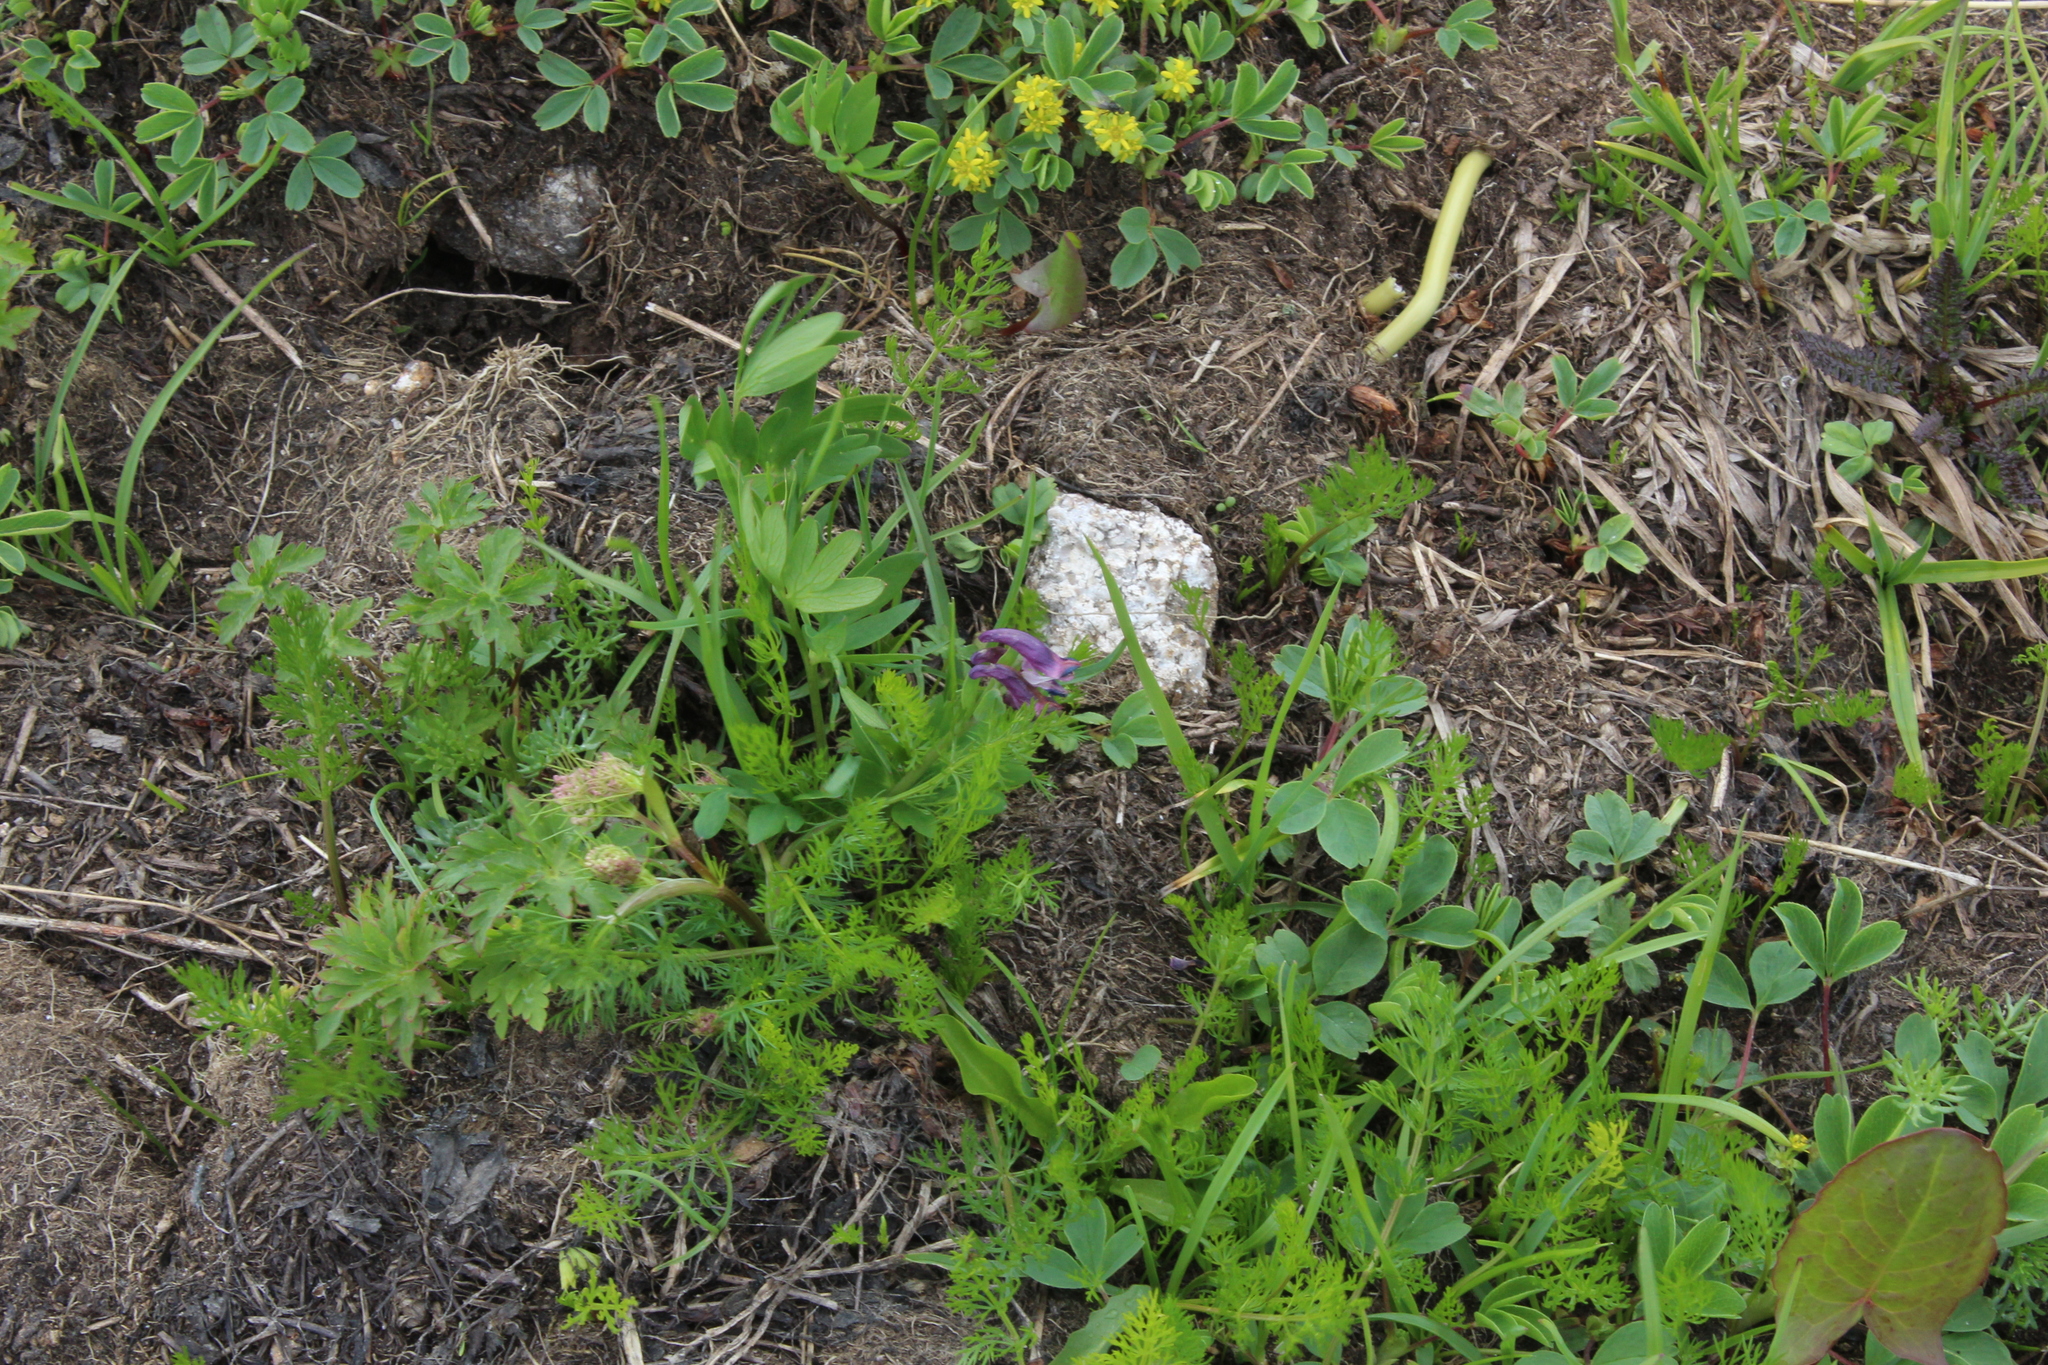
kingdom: Plantae
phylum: Tracheophyta
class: Magnoliopsida
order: Ranunculales
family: Papaveraceae
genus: Corydalis
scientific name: Corydalis conorhiza
